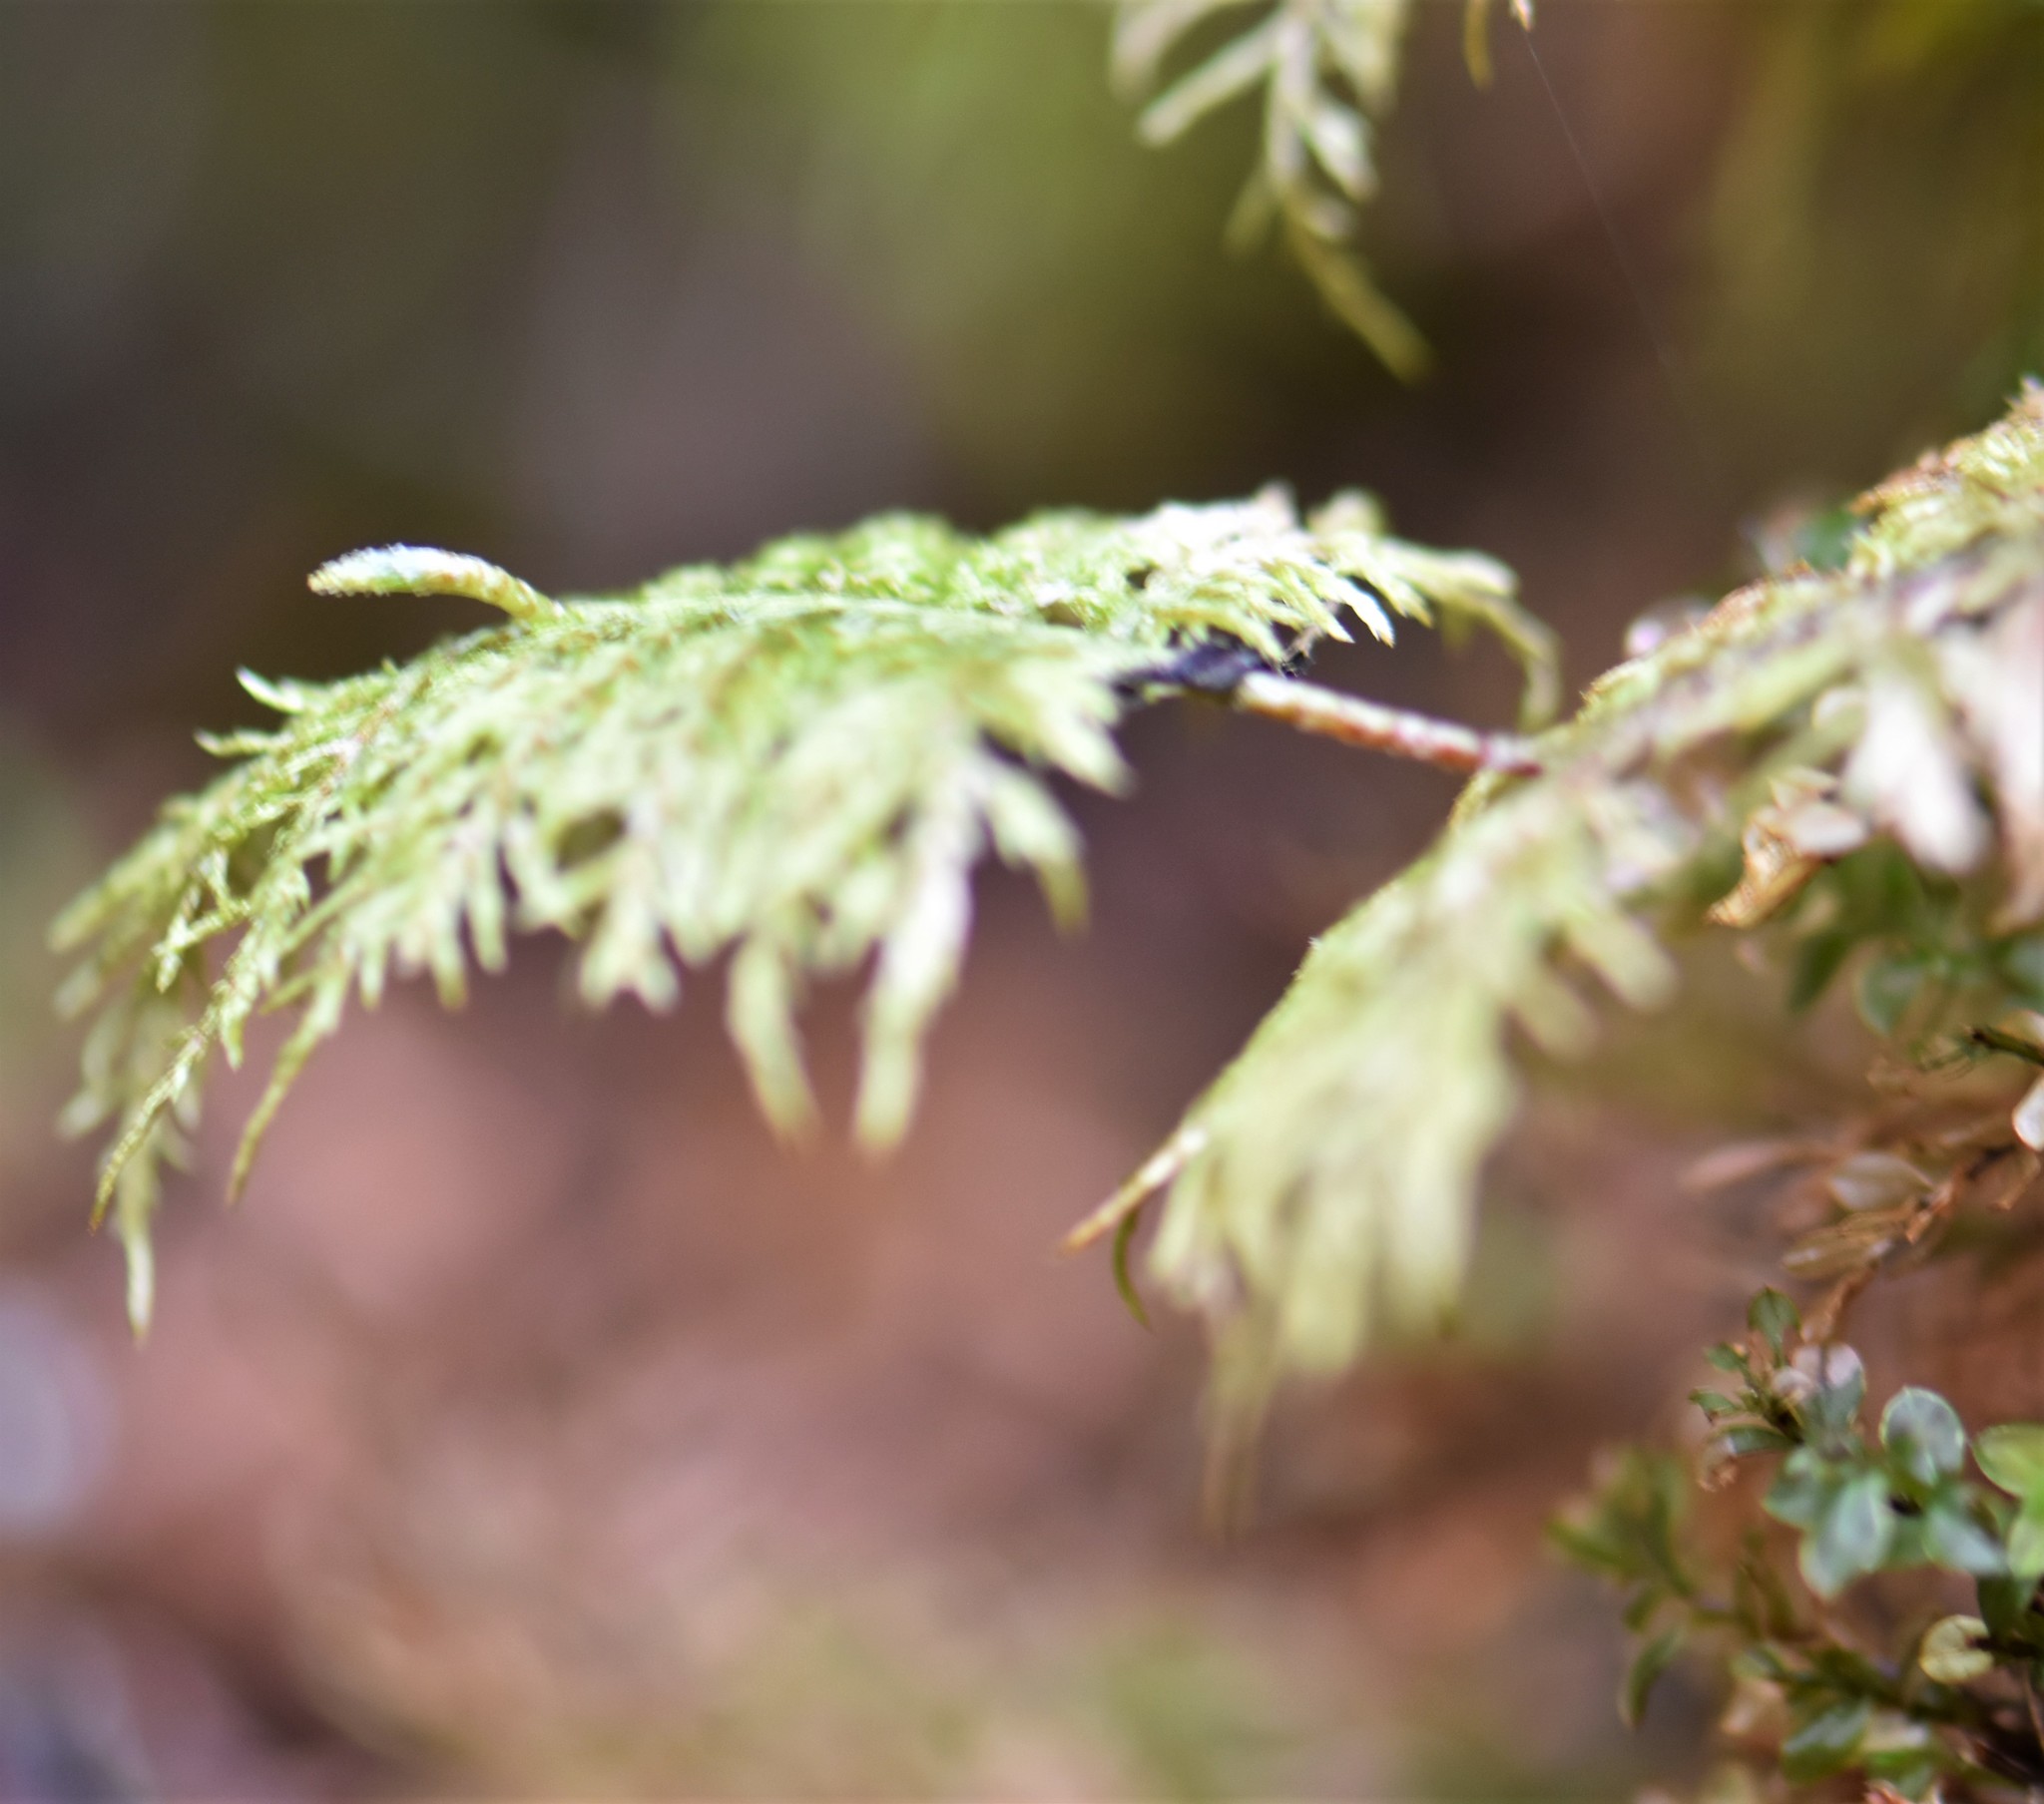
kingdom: Plantae
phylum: Bryophyta
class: Bryopsida
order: Hypnales
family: Hylocomiaceae
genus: Hylocomium
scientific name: Hylocomium splendens
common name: Stairstep moss
